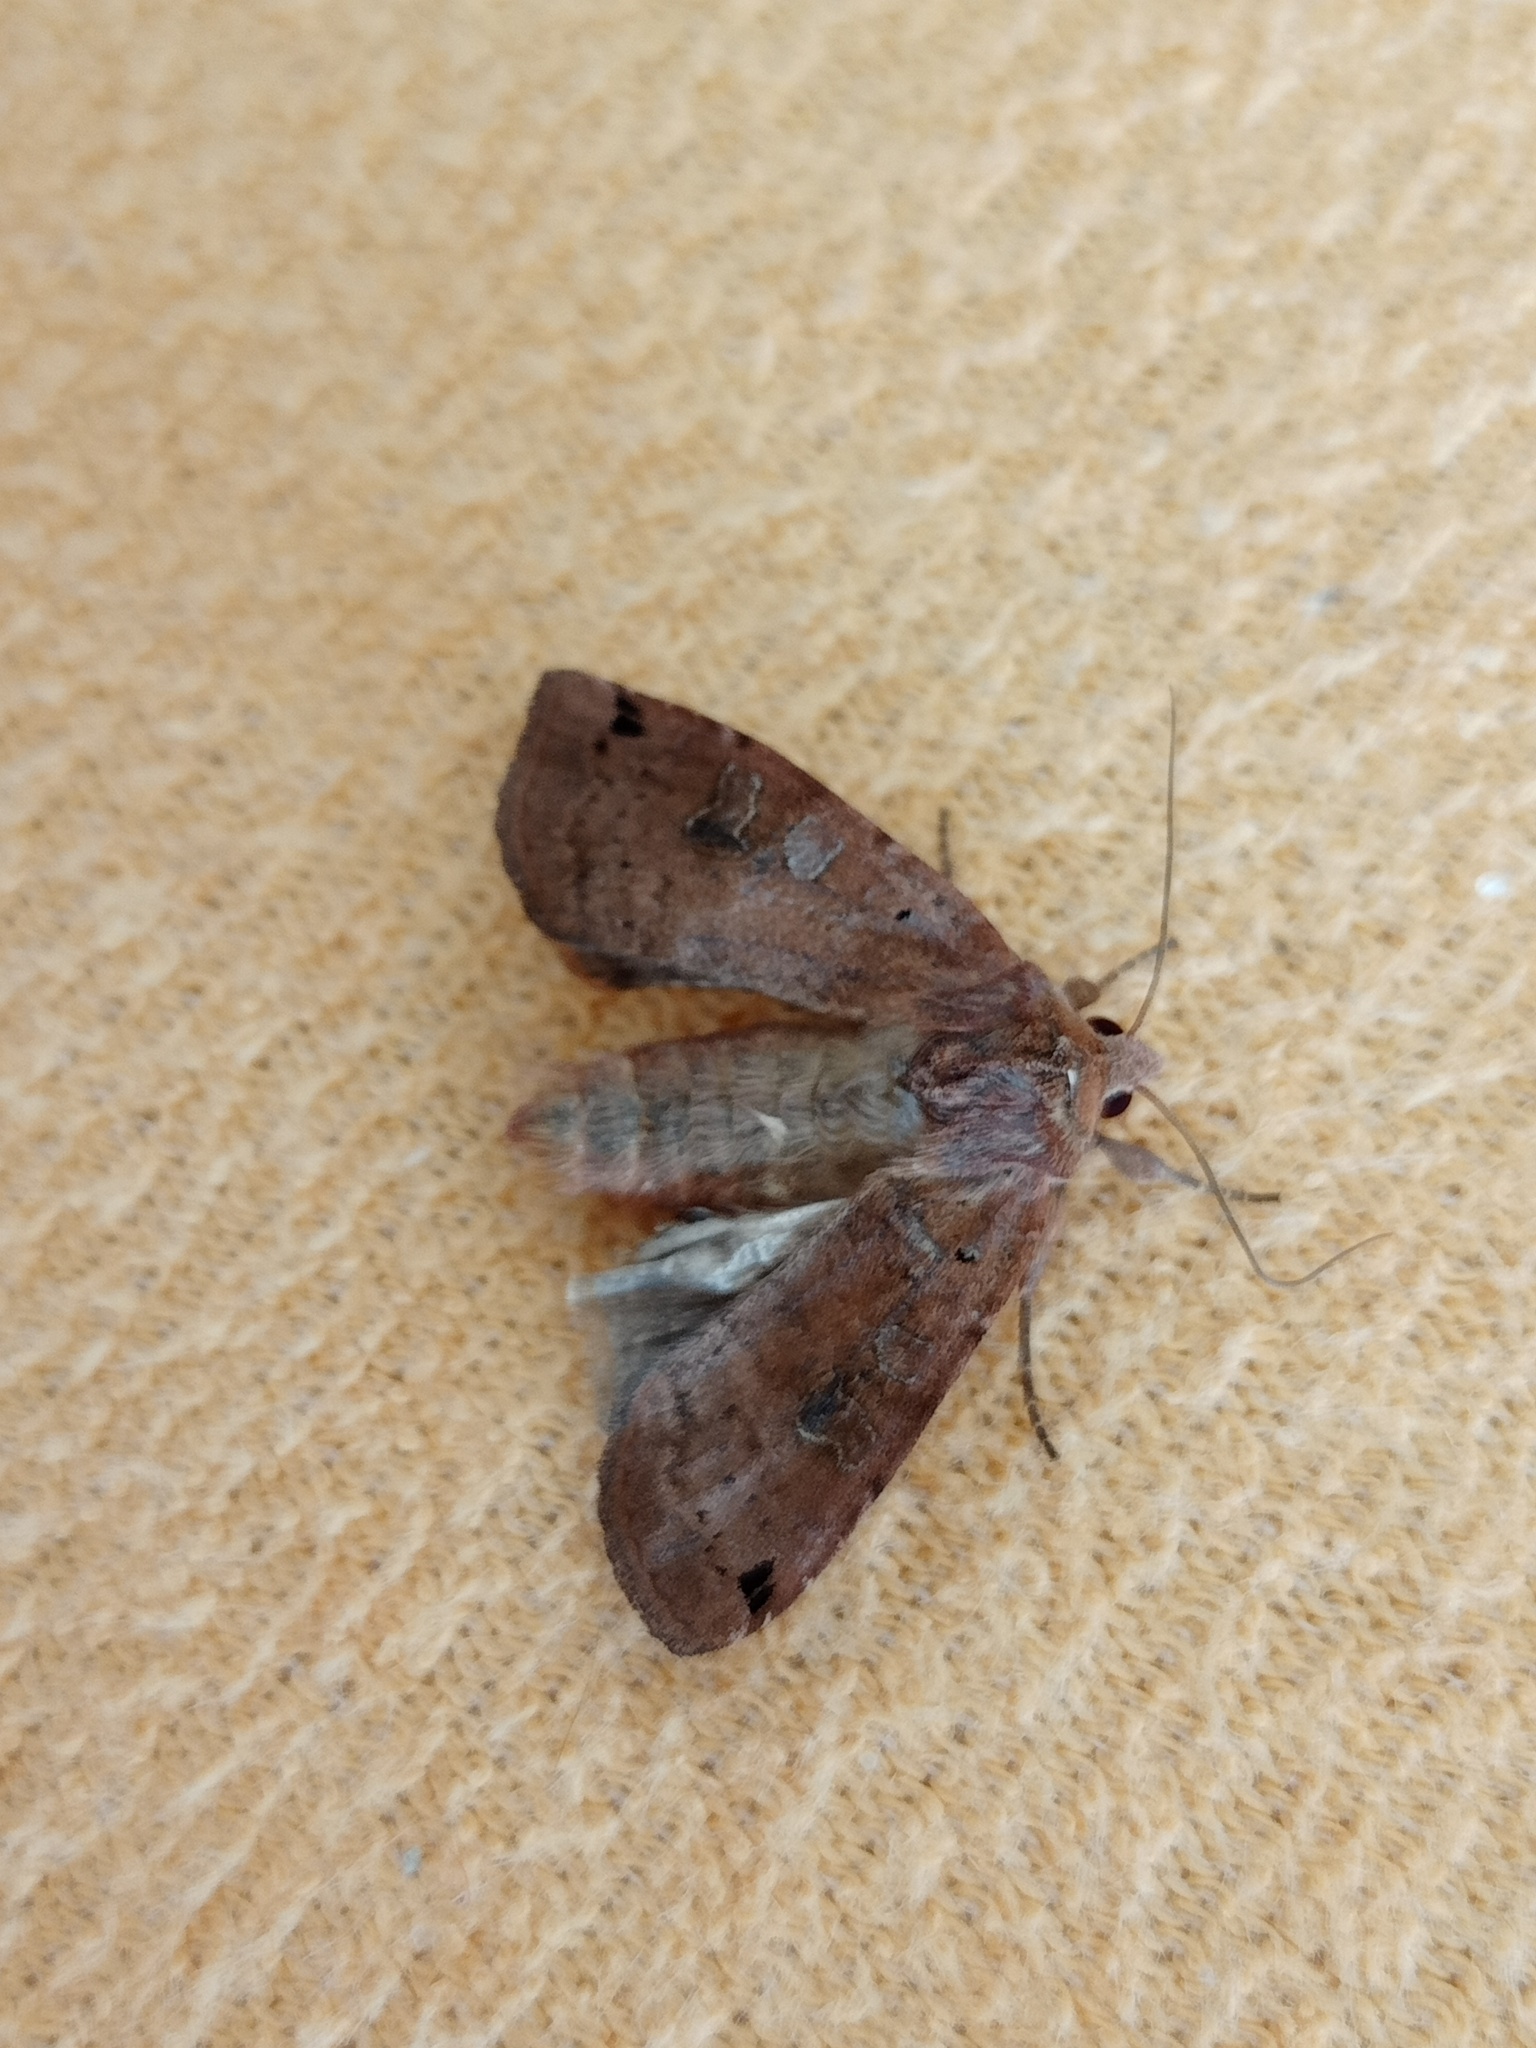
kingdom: Animalia
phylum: Arthropoda
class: Insecta
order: Lepidoptera
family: Noctuidae
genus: Xestia
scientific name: Xestia baja
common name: Dotted clay
